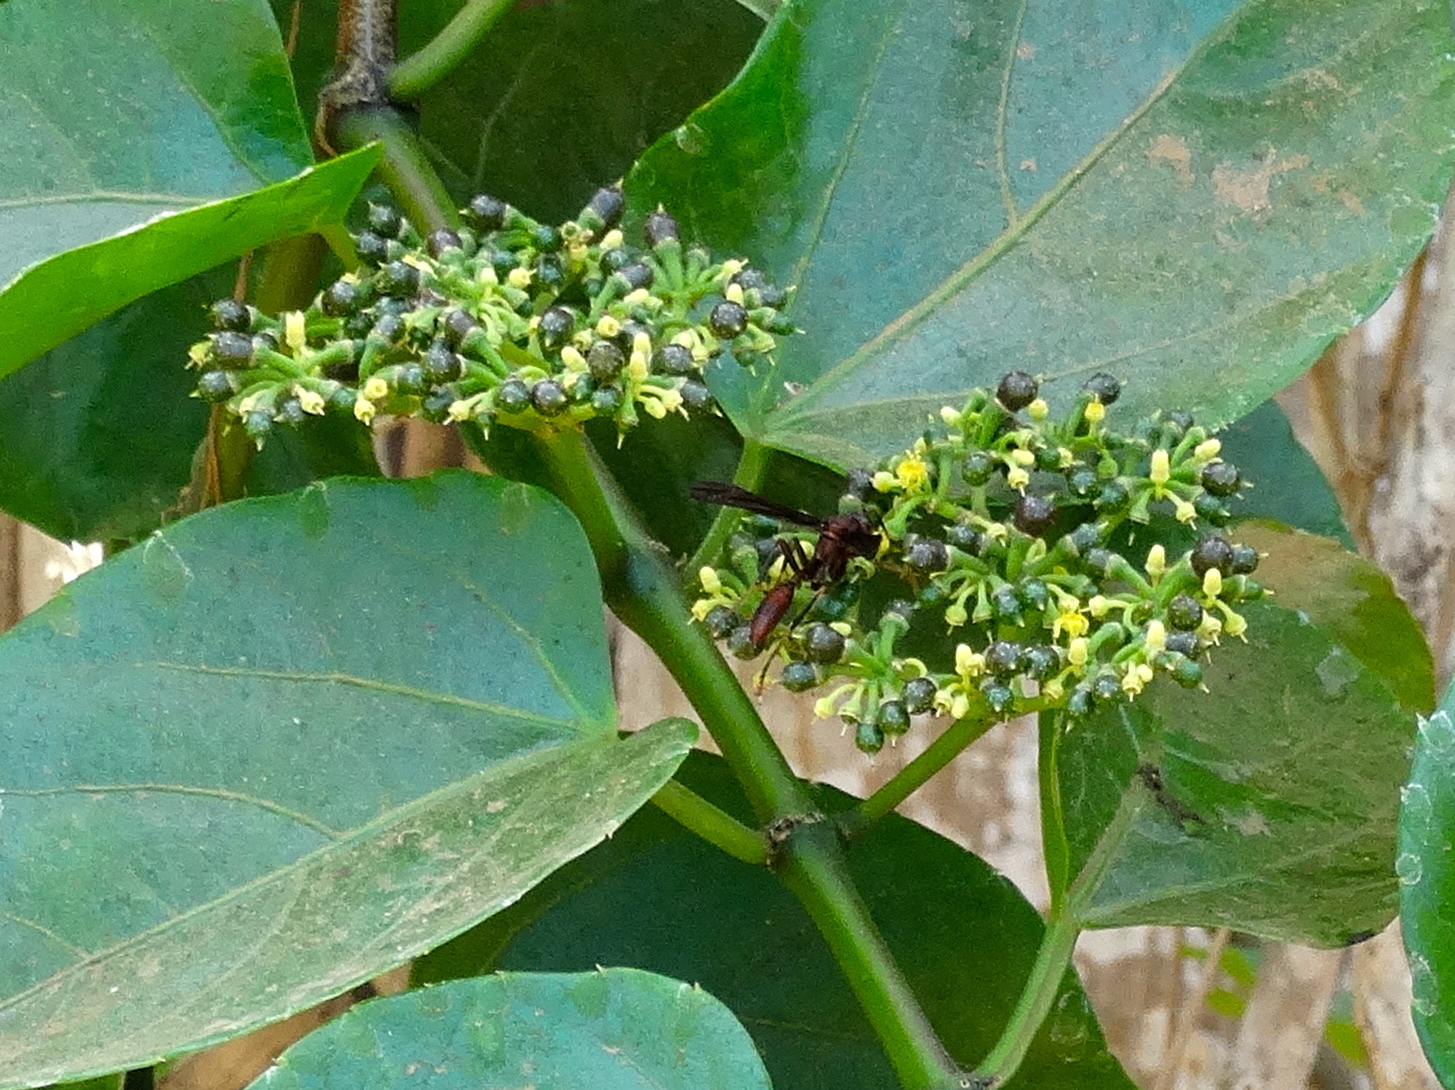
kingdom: Plantae
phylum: Tracheophyta
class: Magnoliopsida
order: Vitales
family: Vitaceae
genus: Cissus
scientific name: Cissus verticillata
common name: Princess vine
